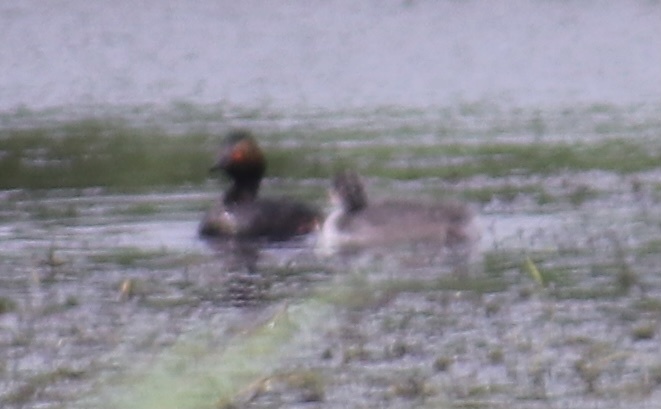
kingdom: Animalia
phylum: Chordata
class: Aves
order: Podicipediformes
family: Podicipedidae
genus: Podiceps
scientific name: Podiceps nigricollis
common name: Black-necked grebe
